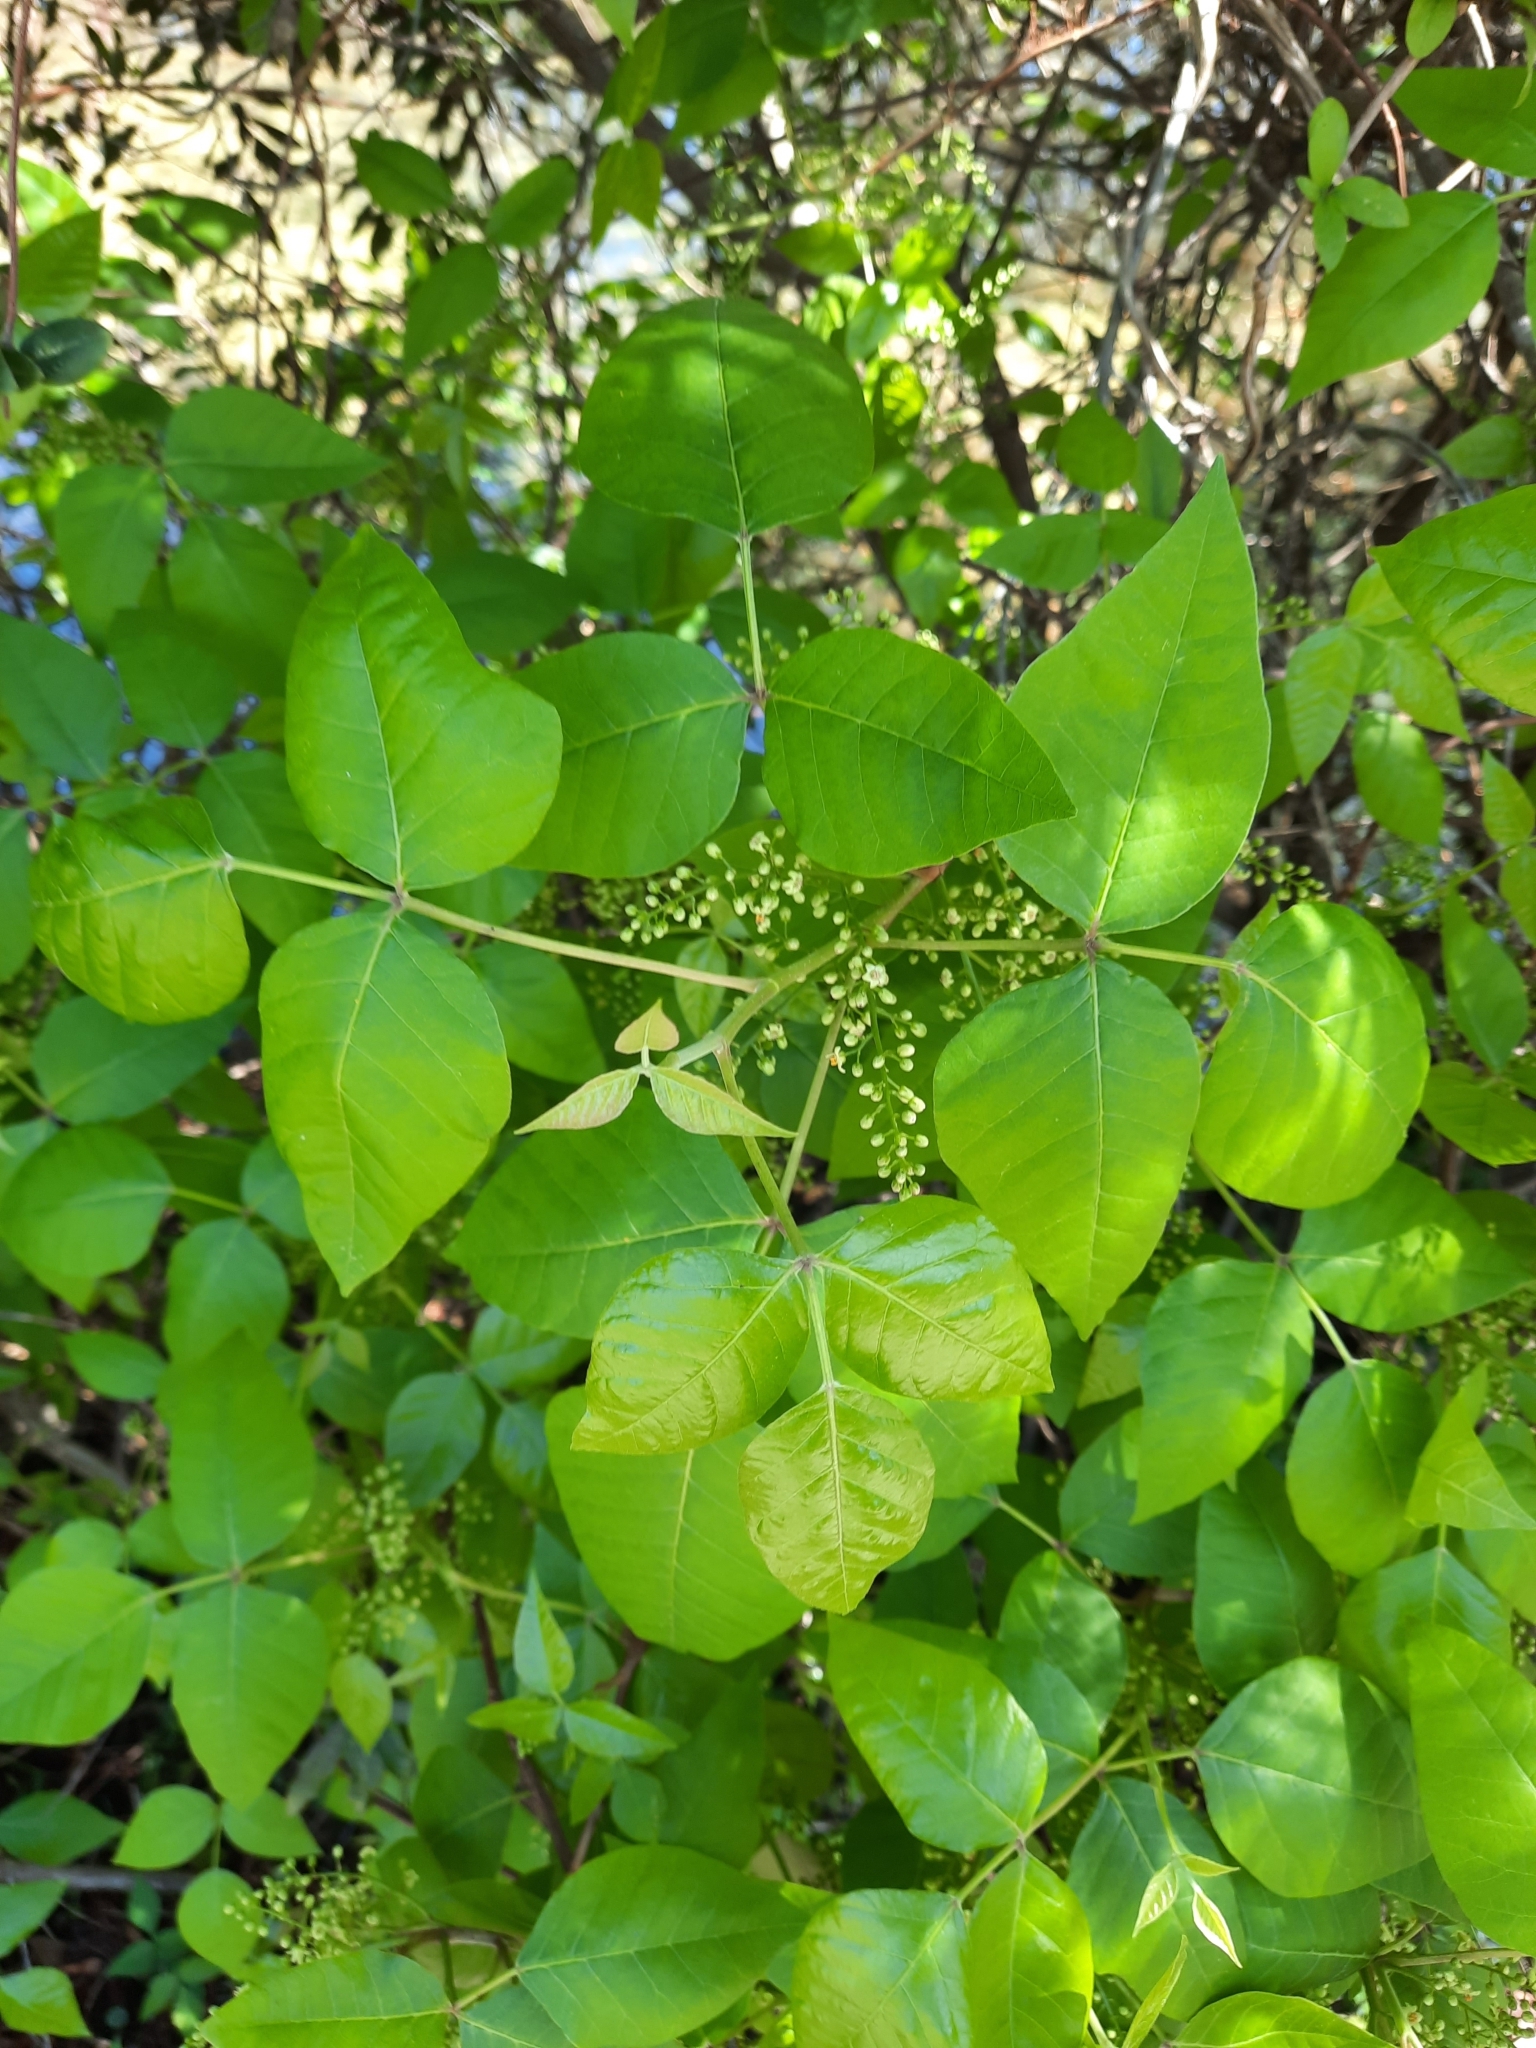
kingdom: Plantae
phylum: Tracheophyta
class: Magnoliopsida
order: Sapindales
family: Anacardiaceae
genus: Toxicodendron
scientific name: Toxicodendron radicans
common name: Poison ivy
